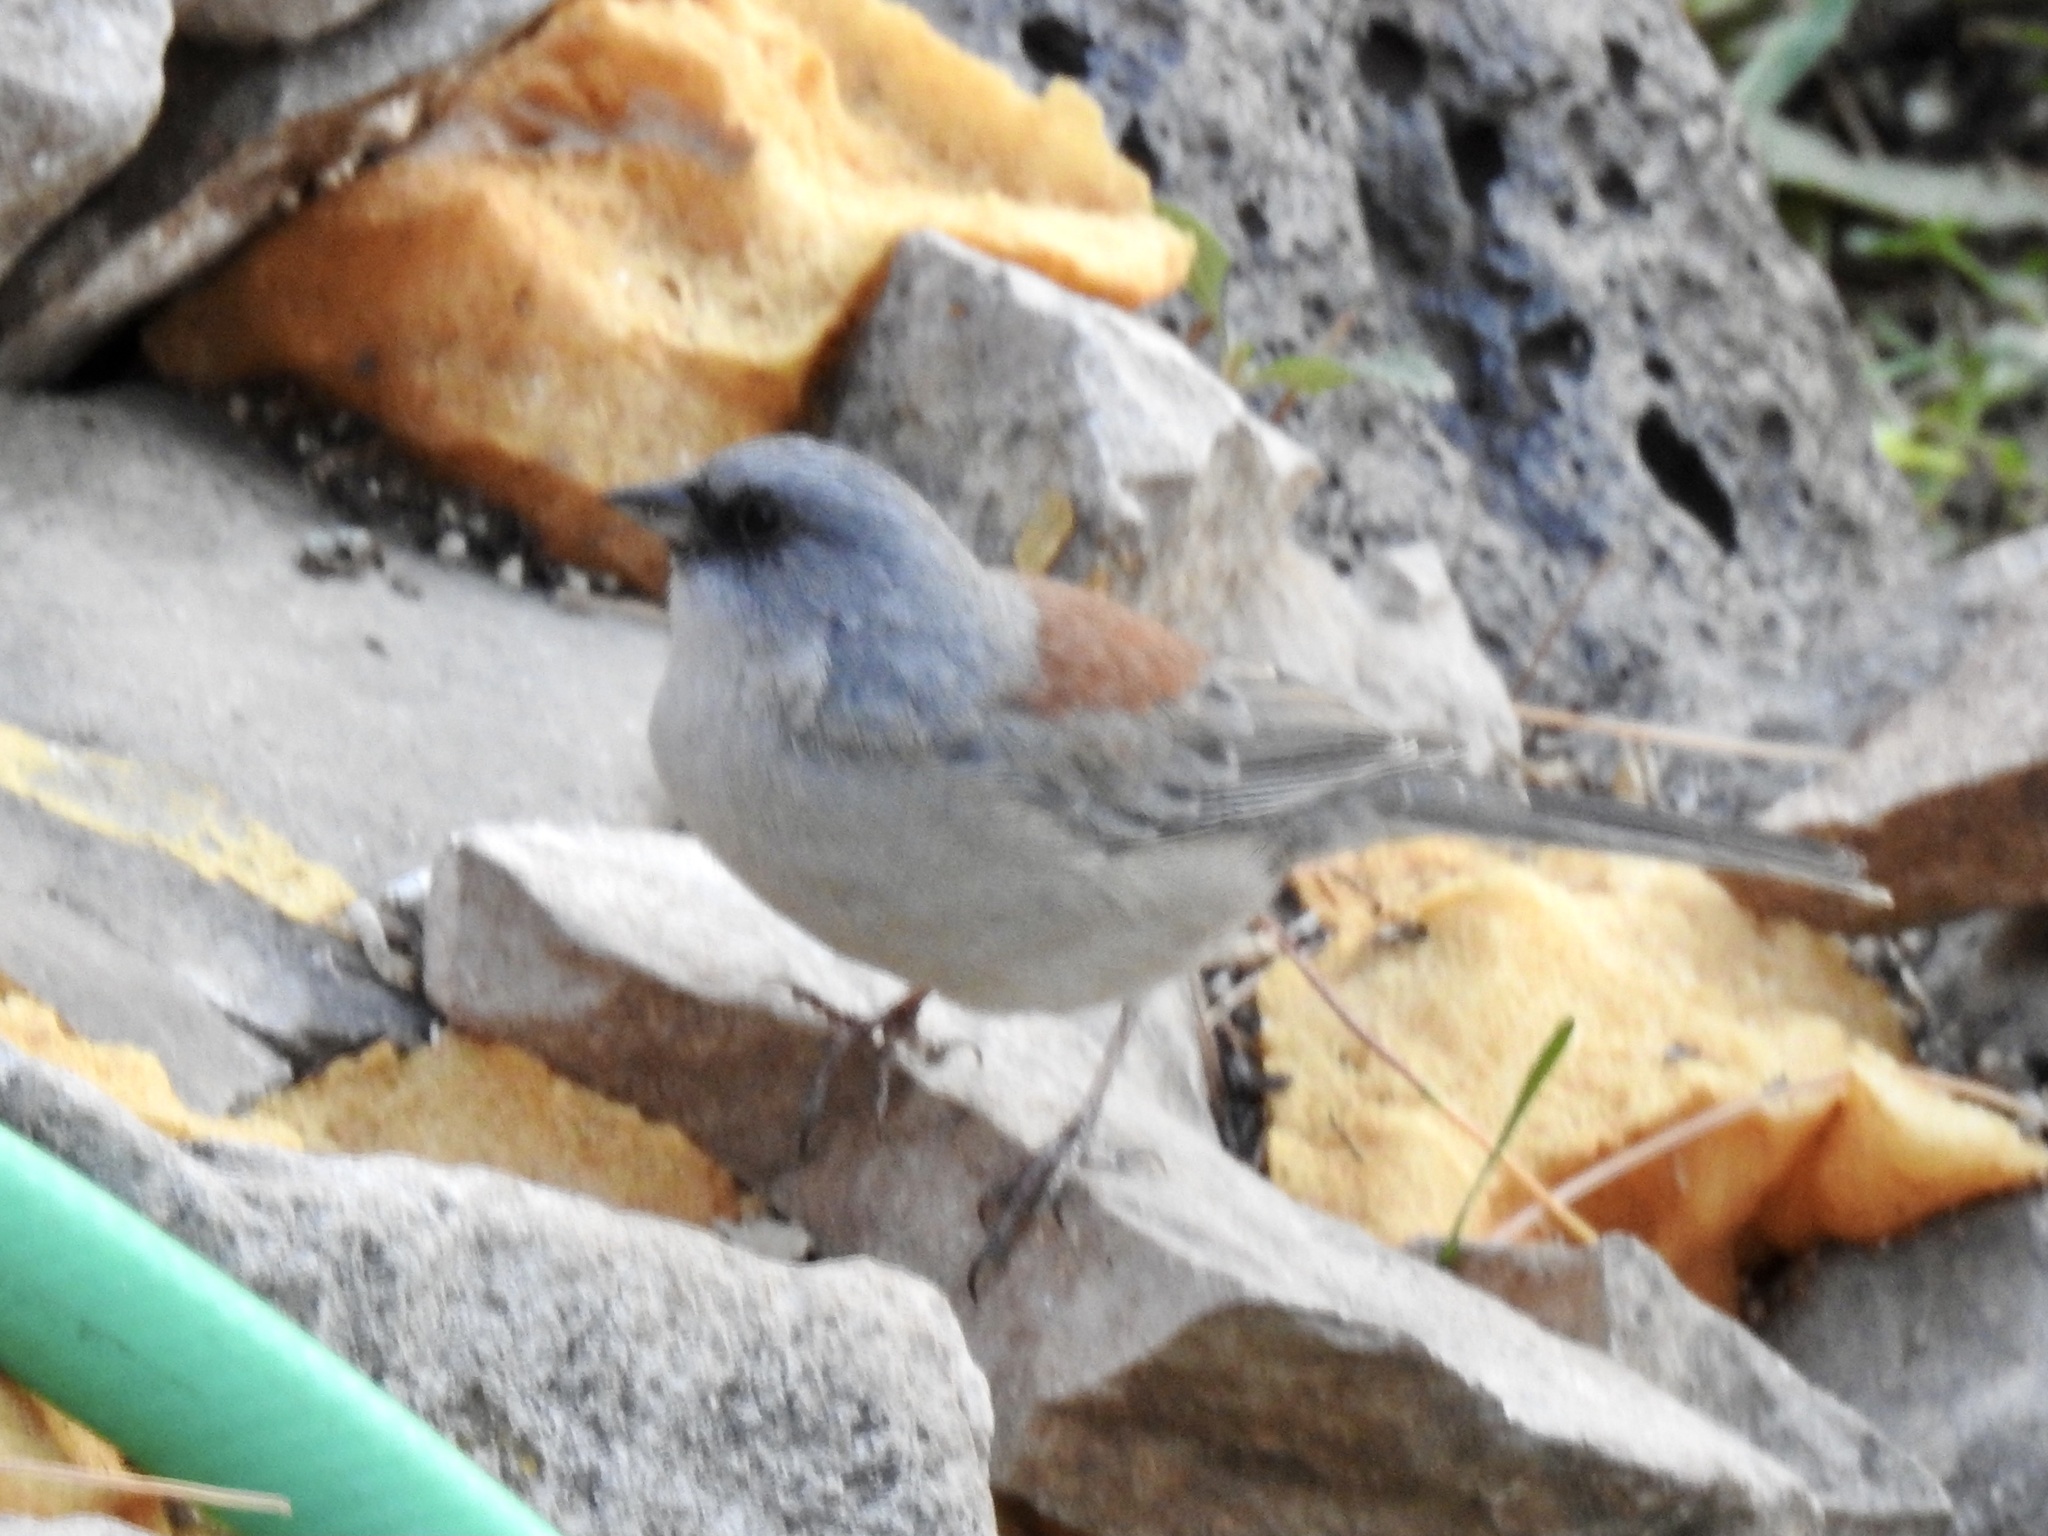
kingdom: Animalia
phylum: Chordata
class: Aves
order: Passeriformes
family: Passerellidae
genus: Junco
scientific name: Junco hyemalis
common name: Dark-eyed junco
